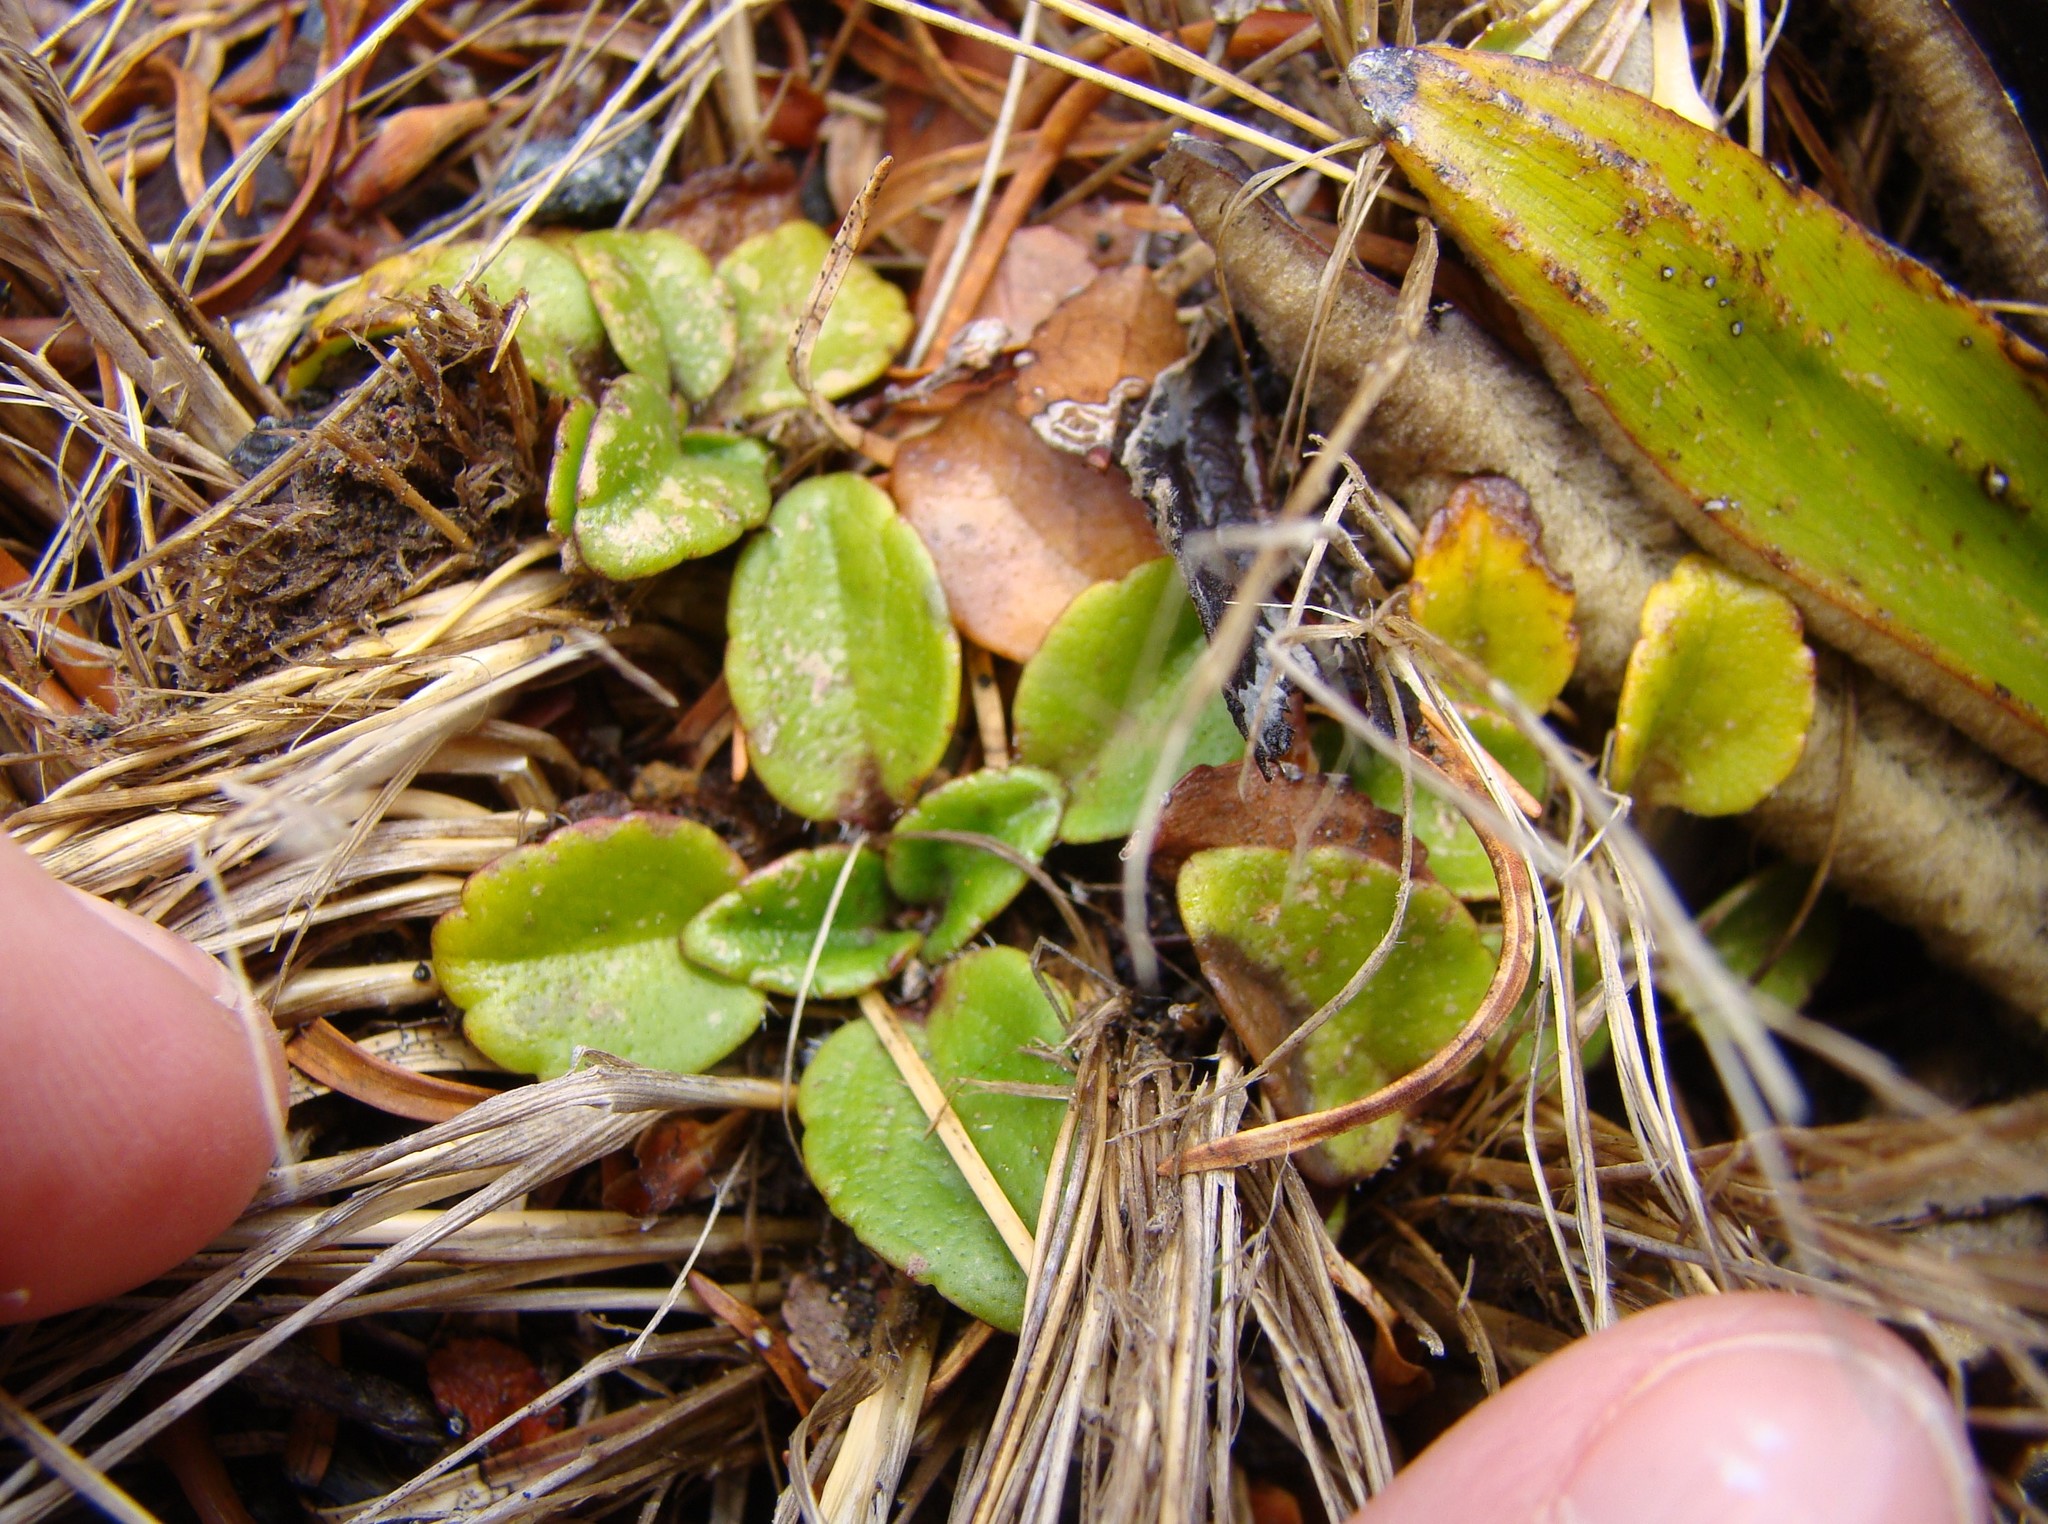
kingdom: Plantae
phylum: Tracheophyta
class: Magnoliopsida
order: Lamiales
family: Plantaginaceae
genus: Ourisia
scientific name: Ourisia vulcanica
